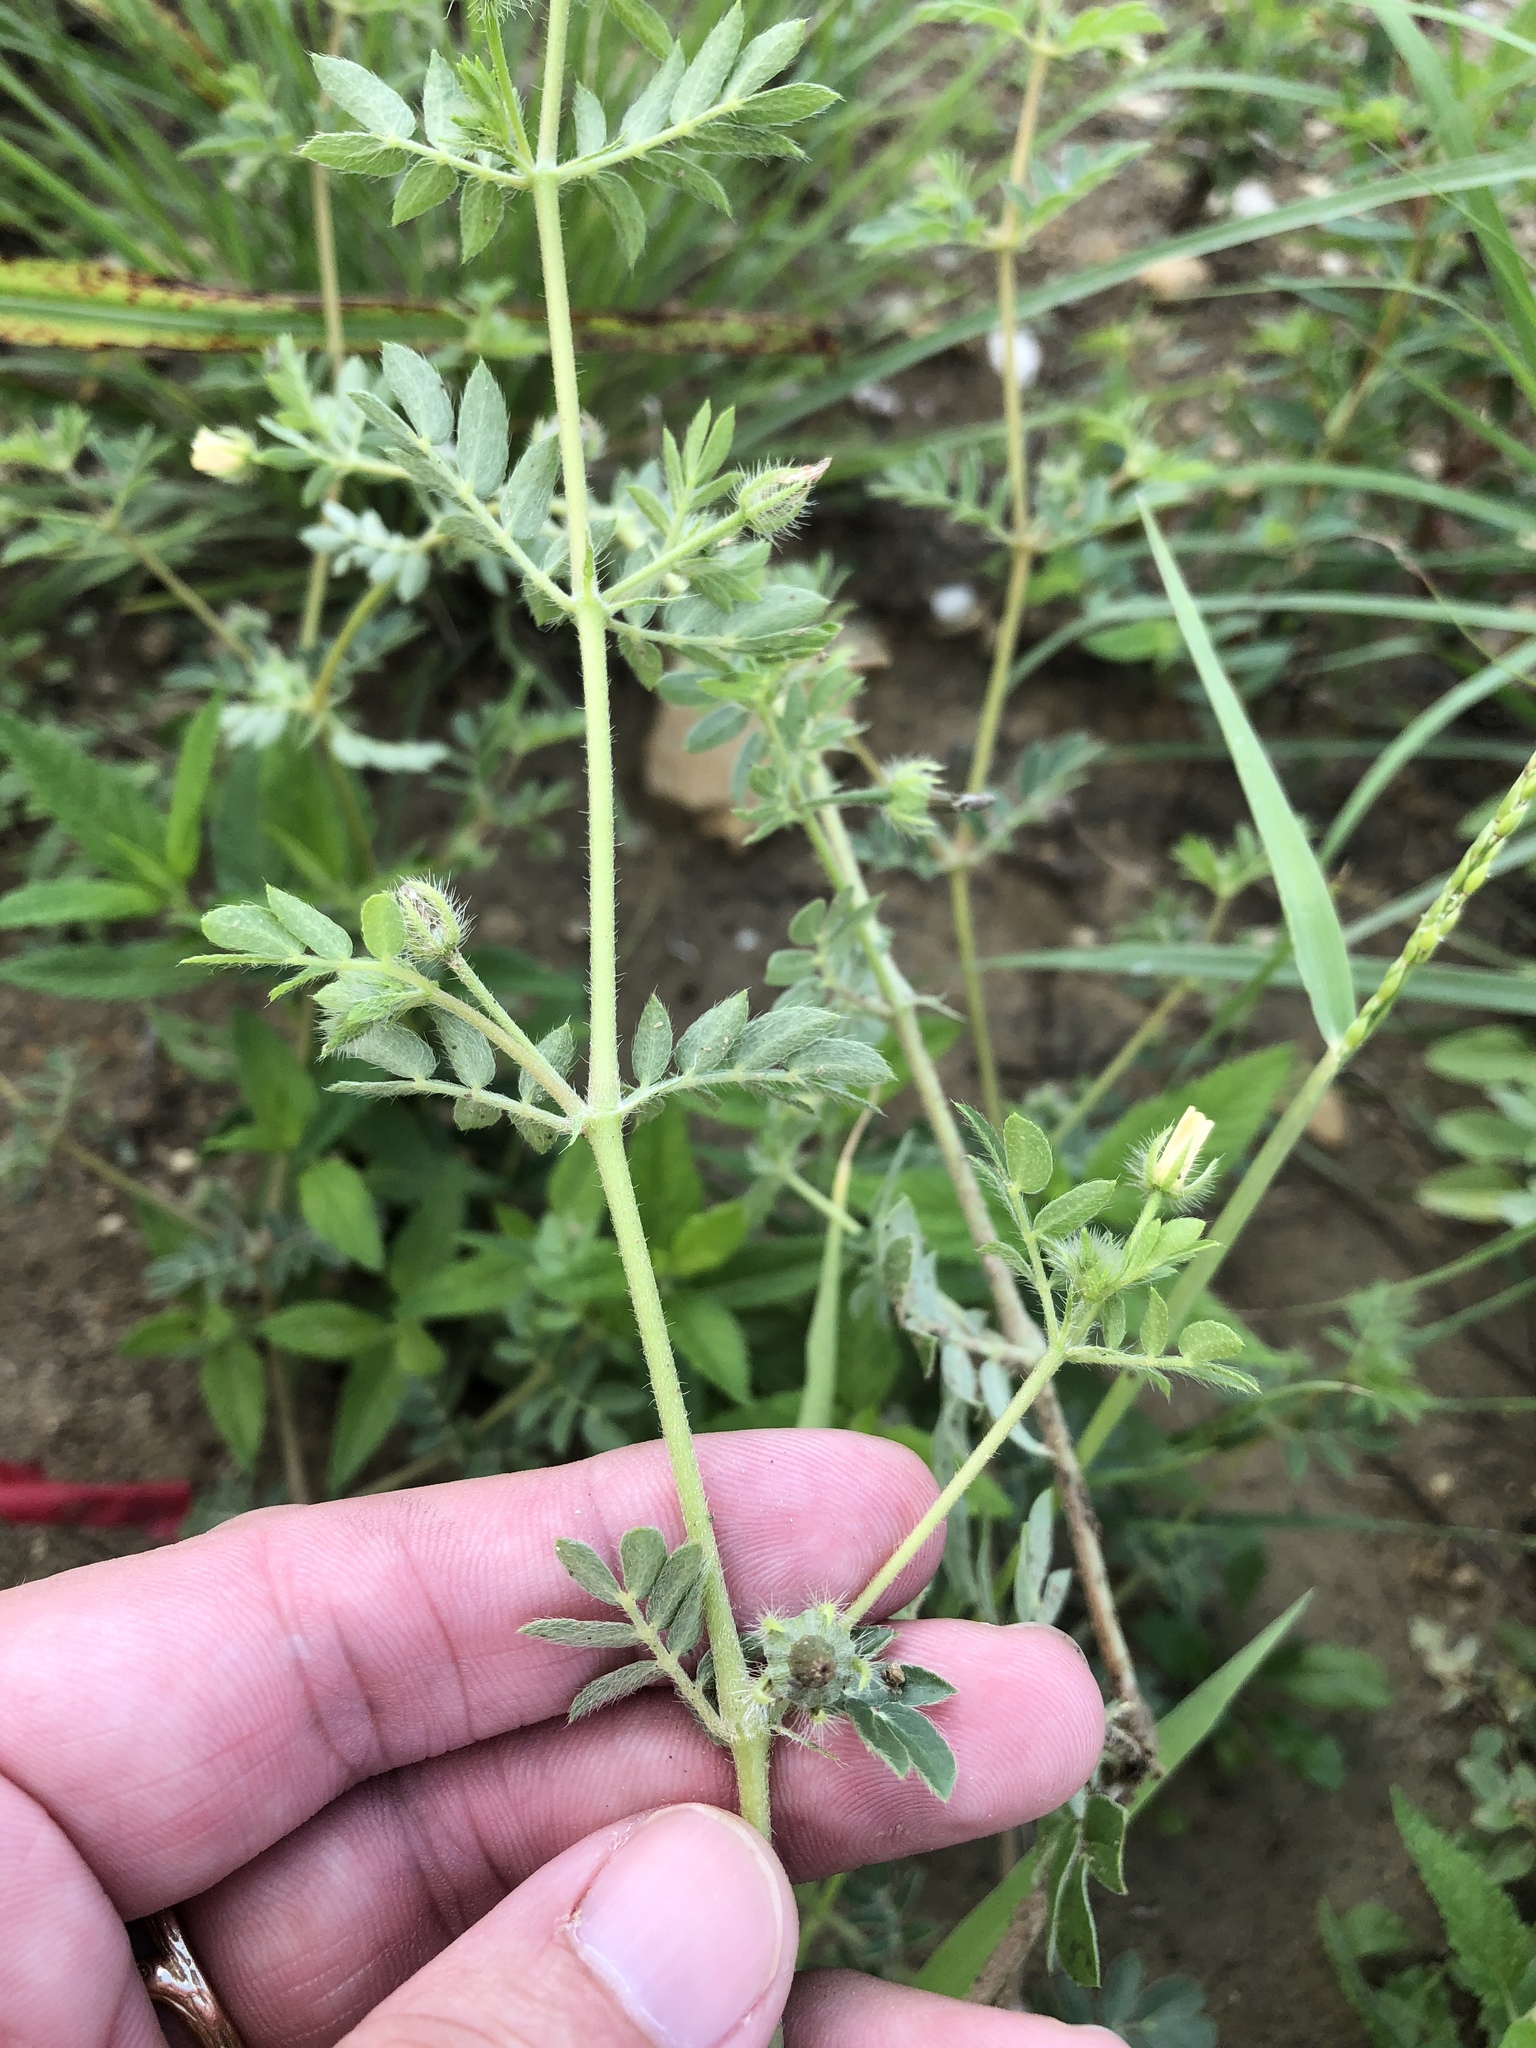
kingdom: Plantae
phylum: Tracheophyta
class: Magnoliopsida
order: Zygophyllales
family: Zygophyllaceae
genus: Kallstroemia
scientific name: Kallstroemia parviflora
